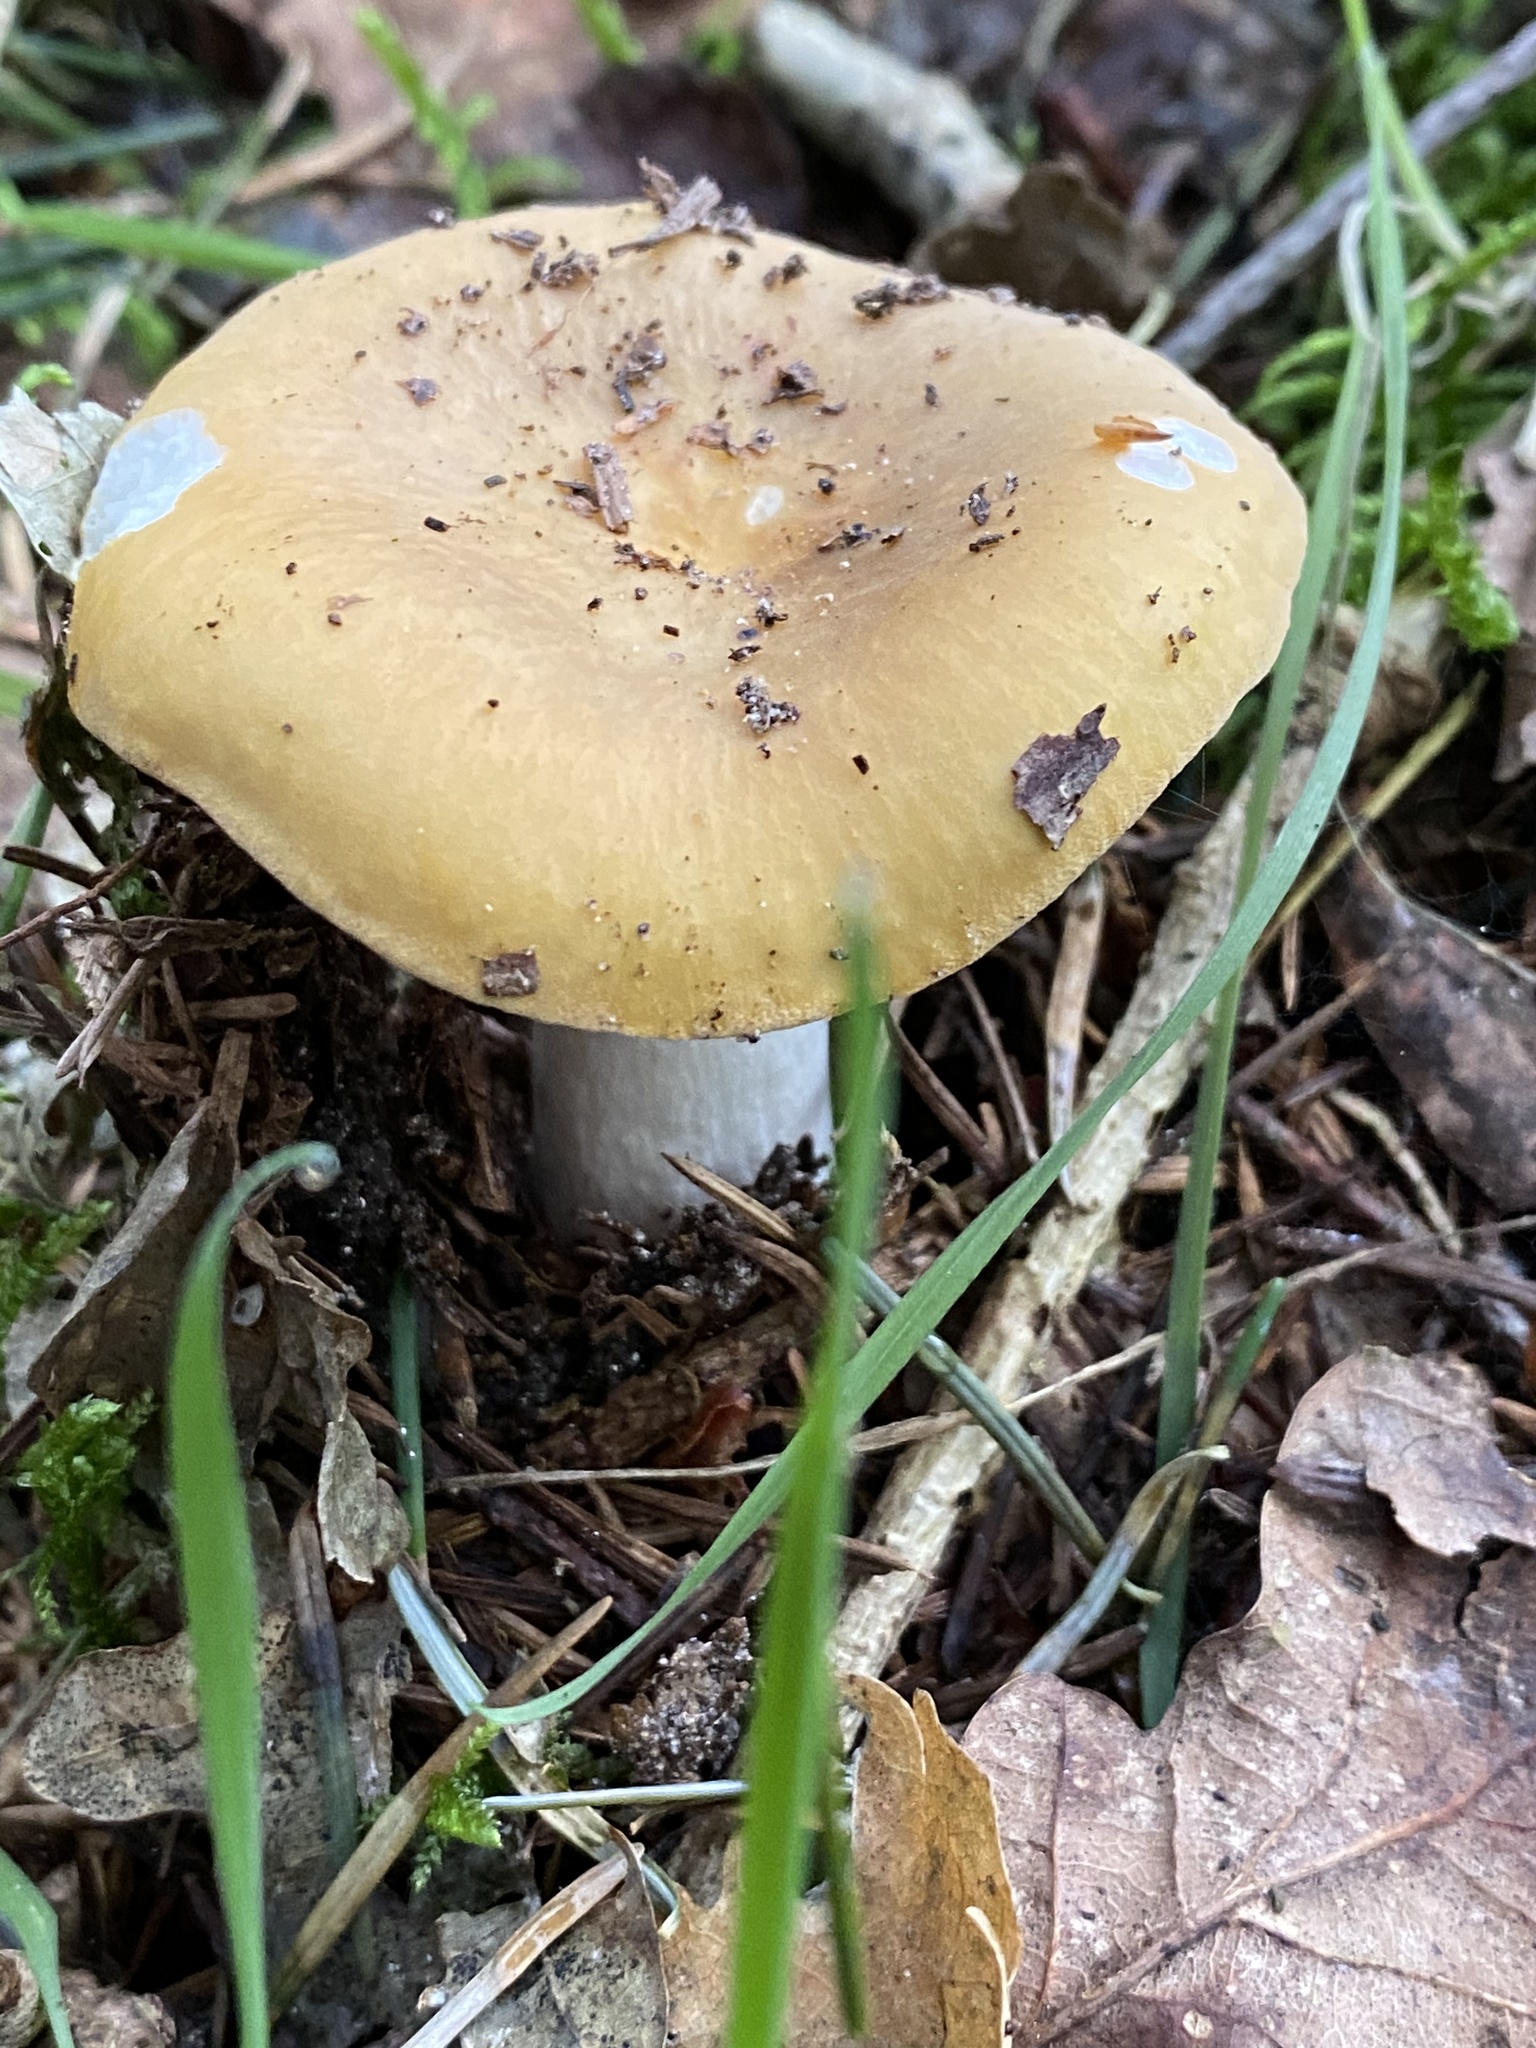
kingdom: Fungi
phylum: Basidiomycota
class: Agaricomycetes
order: Russulales
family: Russulaceae
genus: Russula
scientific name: Russula ochroleuca
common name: Common yellow russula
